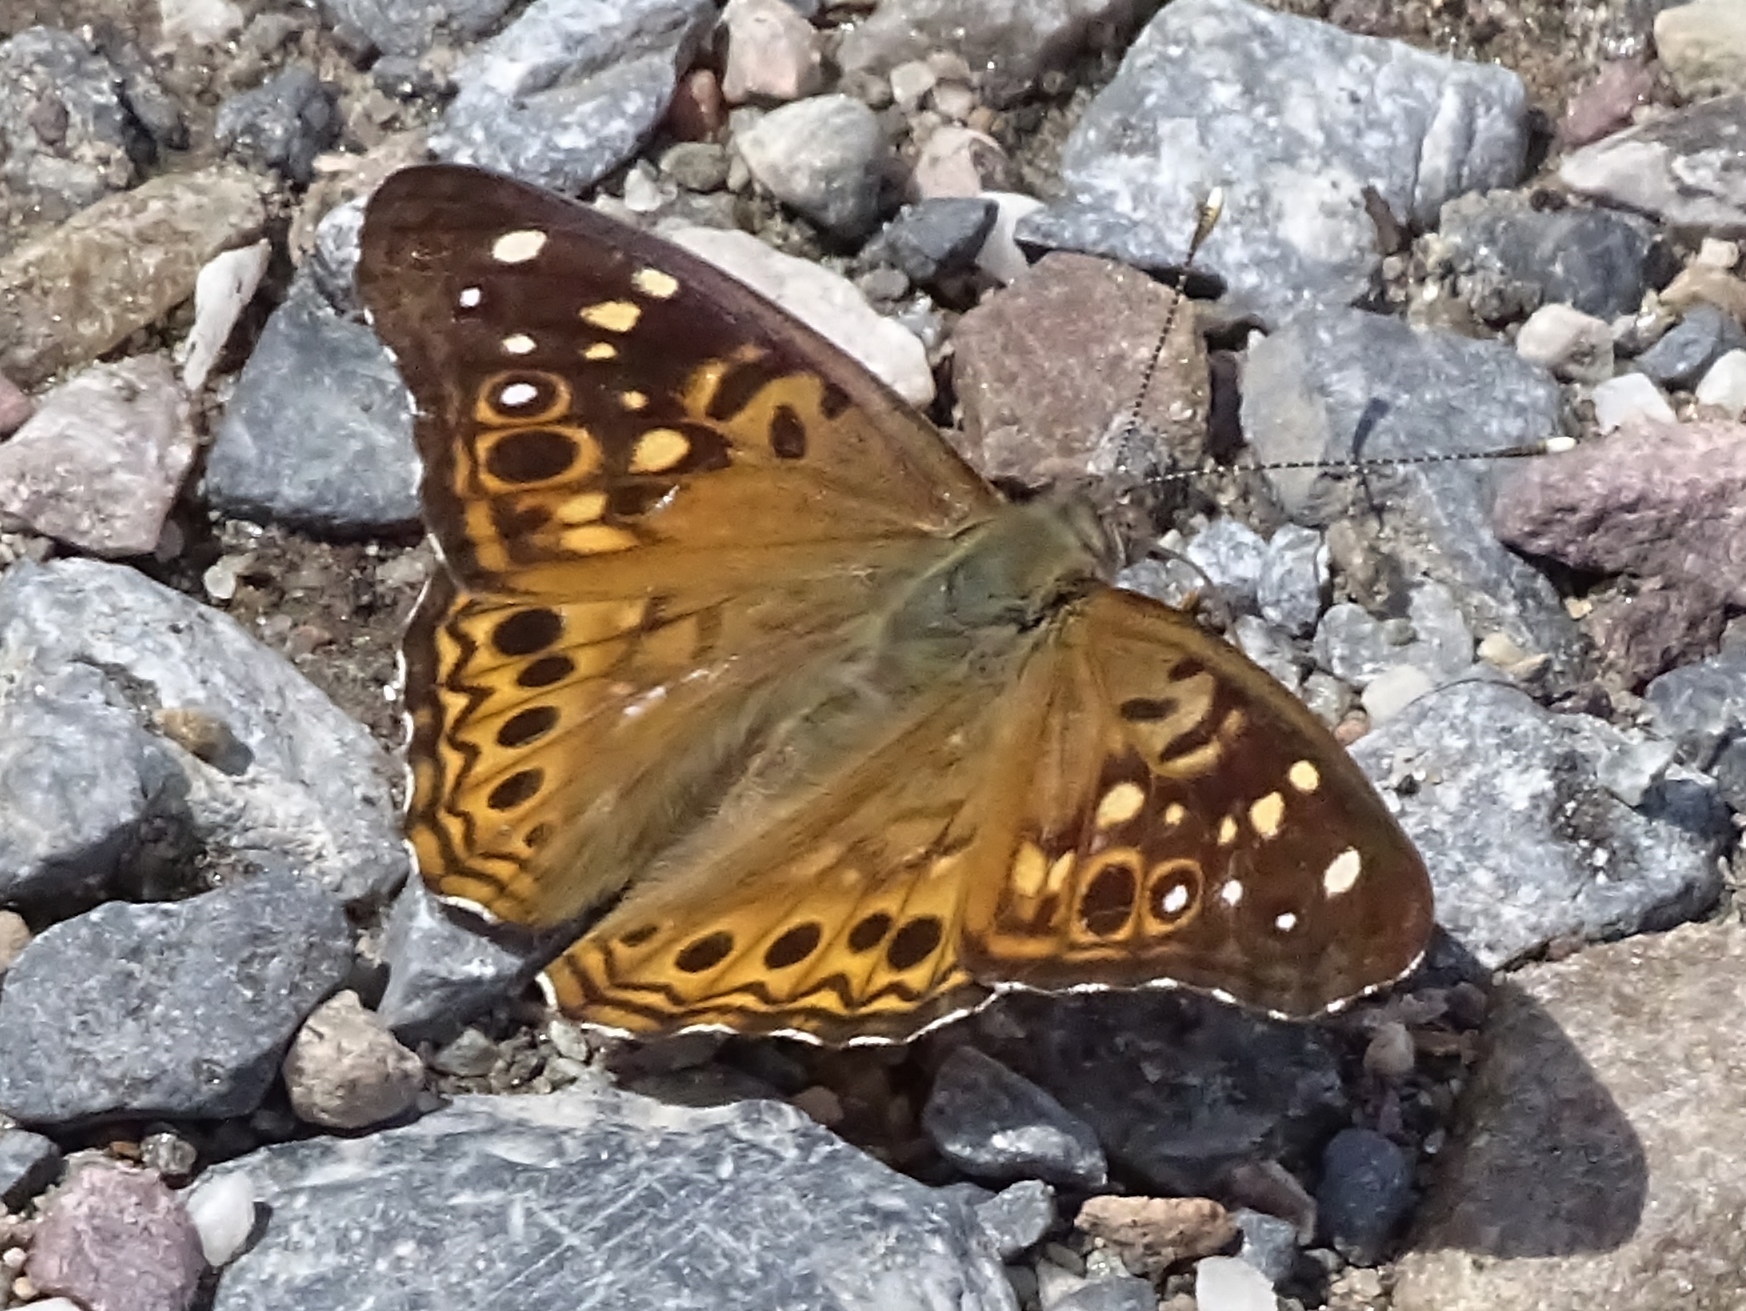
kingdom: Animalia
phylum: Arthropoda
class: Insecta
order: Lepidoptera
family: Nymphalidae
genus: Asterocampa
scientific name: Asterocampa celtis
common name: Hackberry emperor
